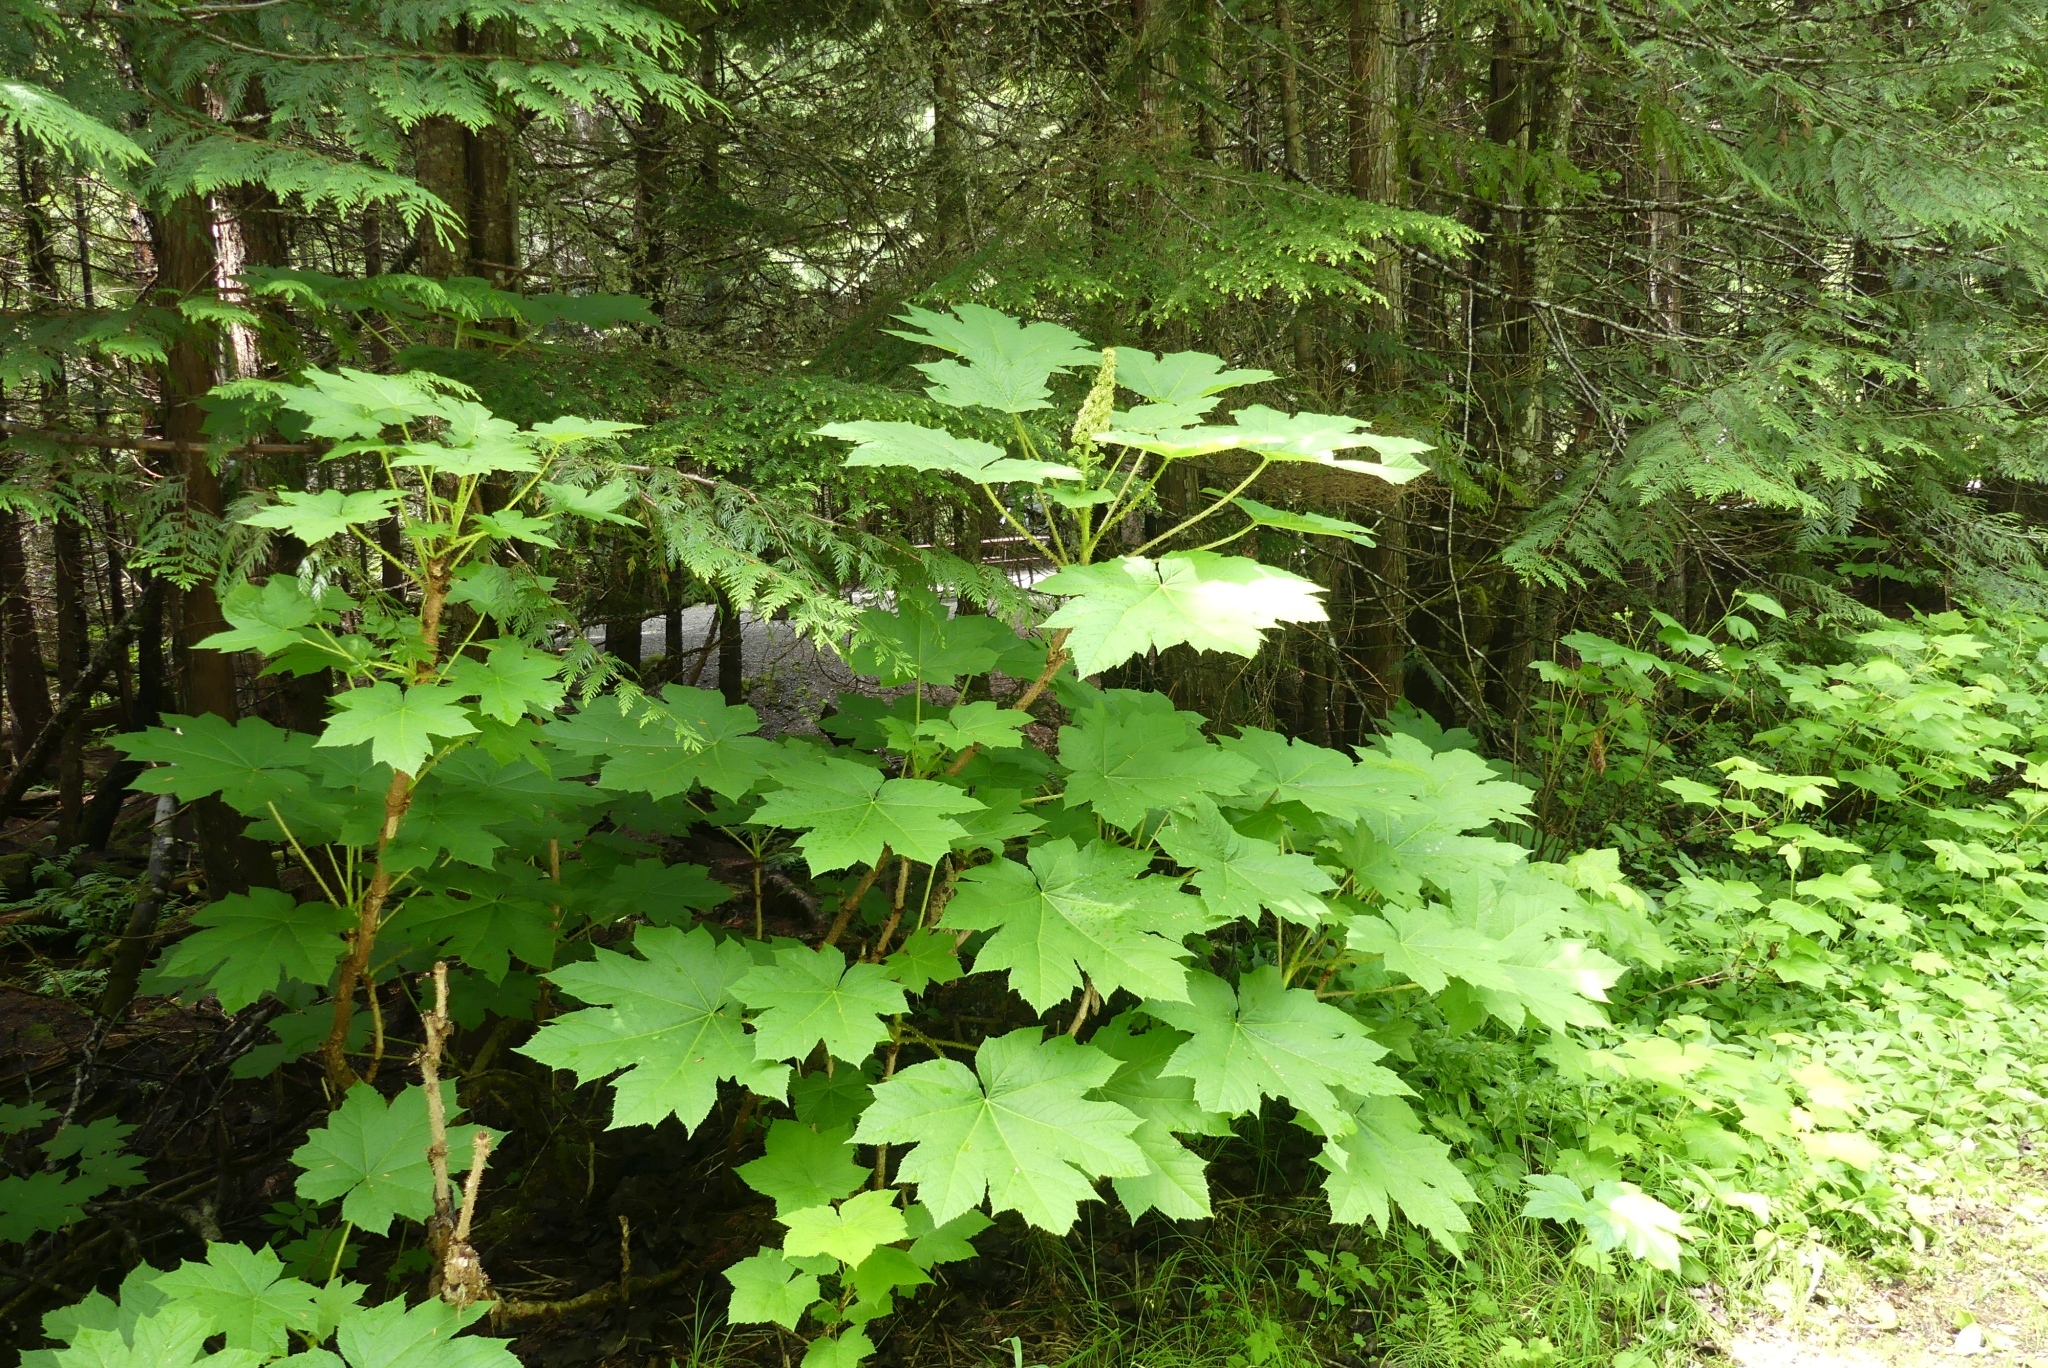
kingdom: Plantae
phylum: Tracheophyta
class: Magnoliopsida
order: Apiales
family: Araliaceae
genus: Oplopanax
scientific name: Oplopanax horridus
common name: Devil's walking-stick
